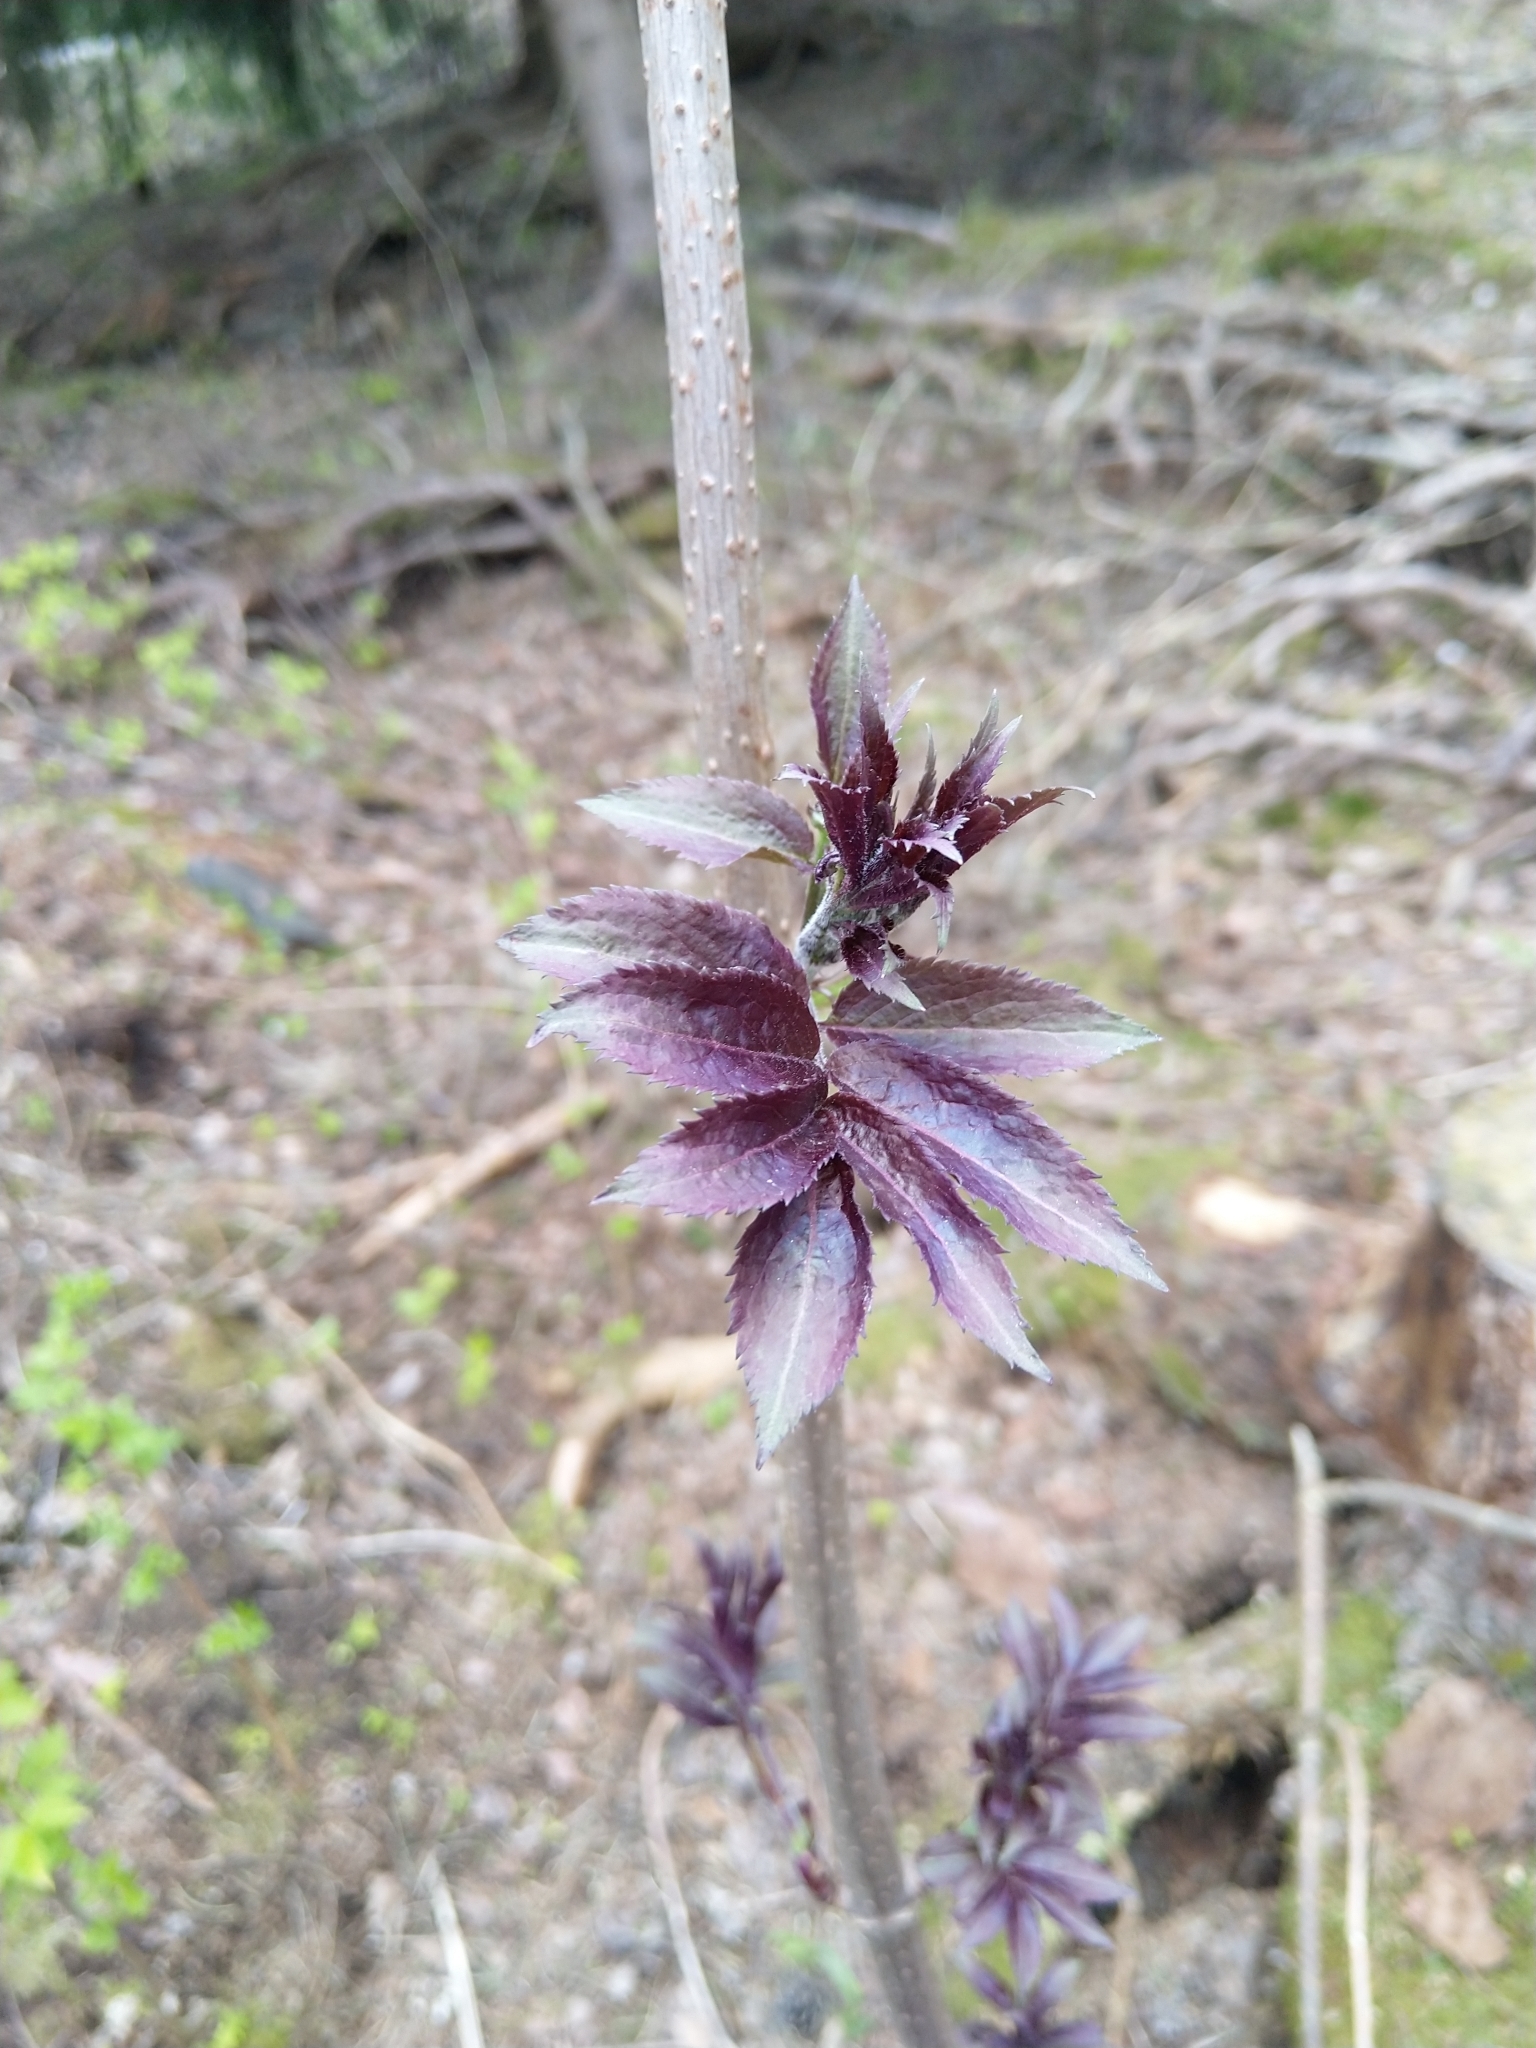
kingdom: Plantae
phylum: Tracheophyta
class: Magnoliopsida
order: Dipsacales
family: Viburnaceae
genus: Sambucus
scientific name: Sambucus racemosa
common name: Red-berried elder
